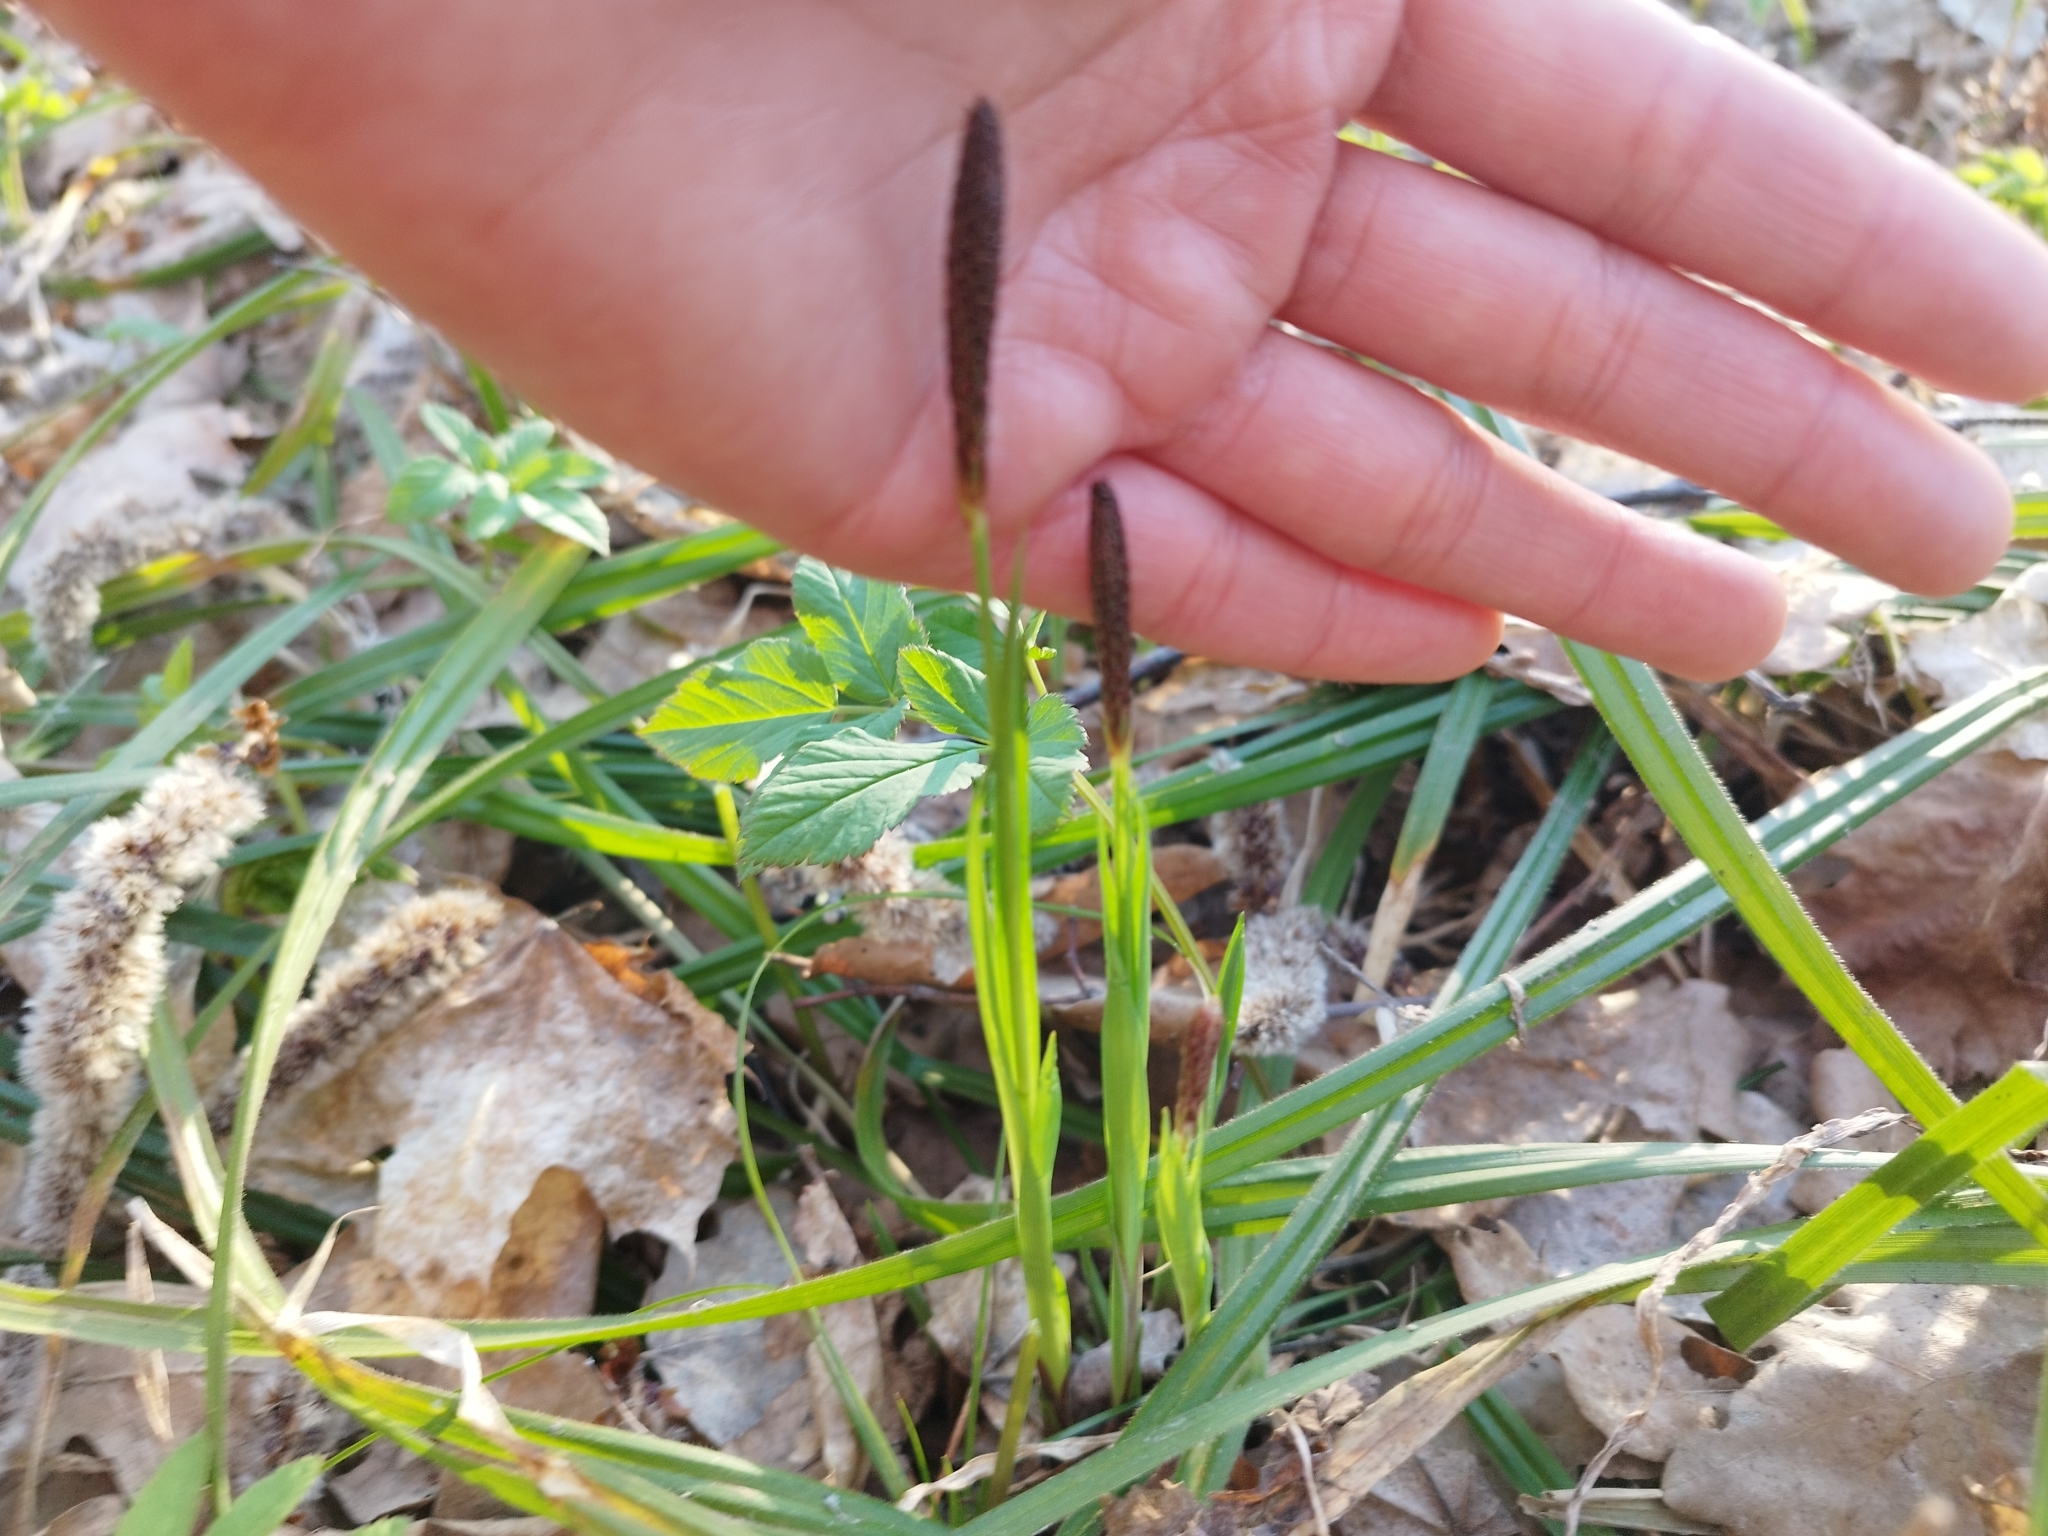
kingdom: Plantae
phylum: Tracheophyta
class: Liliopsida
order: Poales
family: Cyperaceae
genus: Carex
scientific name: Carex pilosa
